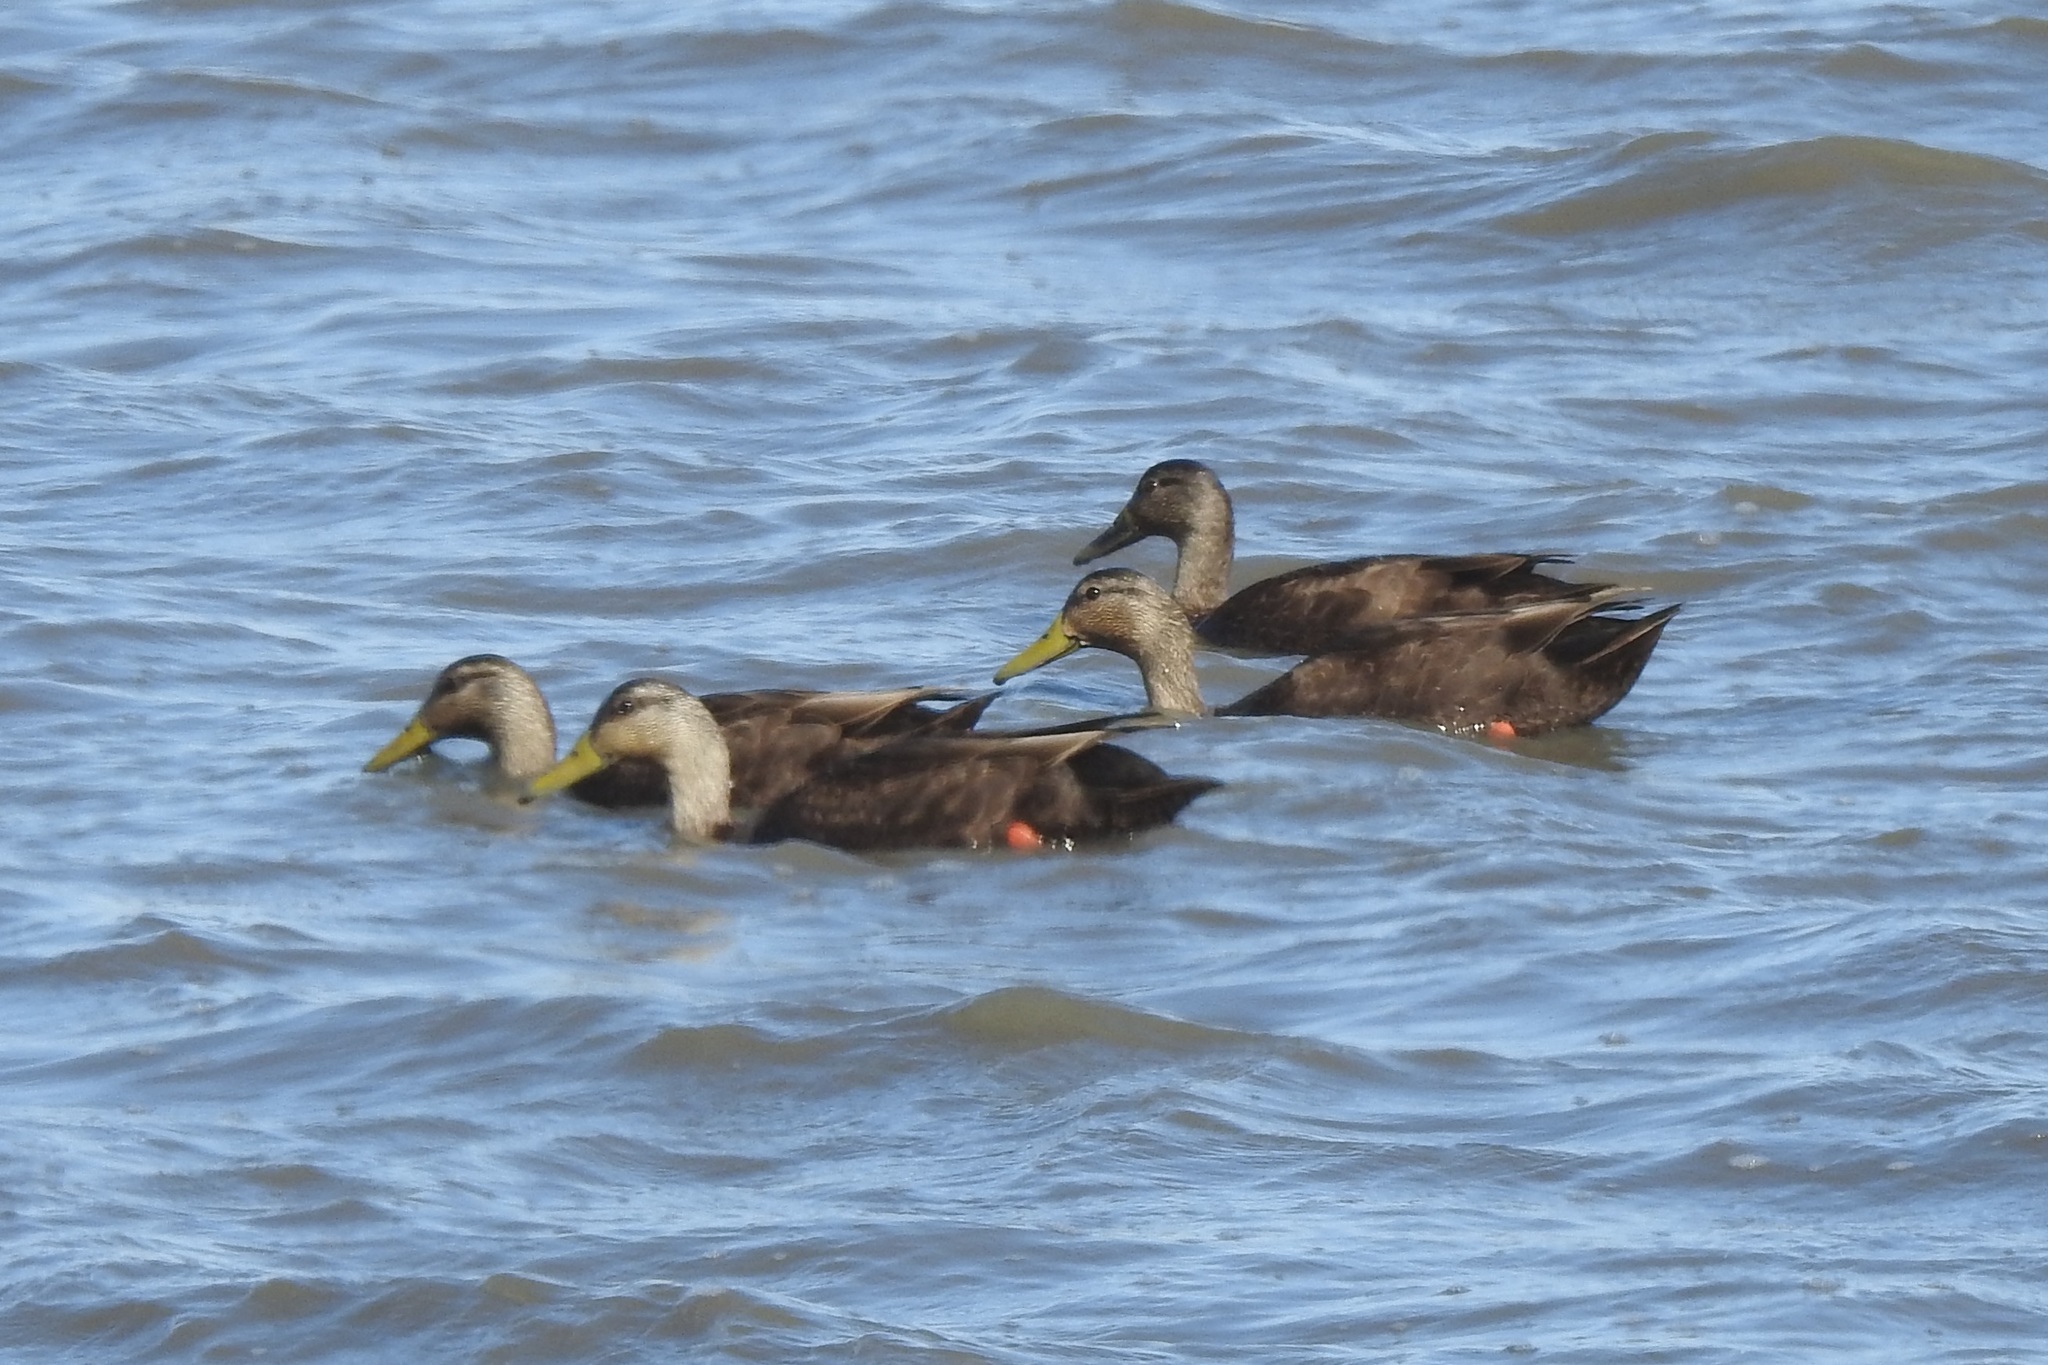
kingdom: Animalia
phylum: Chordata
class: Aves
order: Anseriformes
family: Anatidae
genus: Anas
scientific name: Anas rubripes
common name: American black duck
